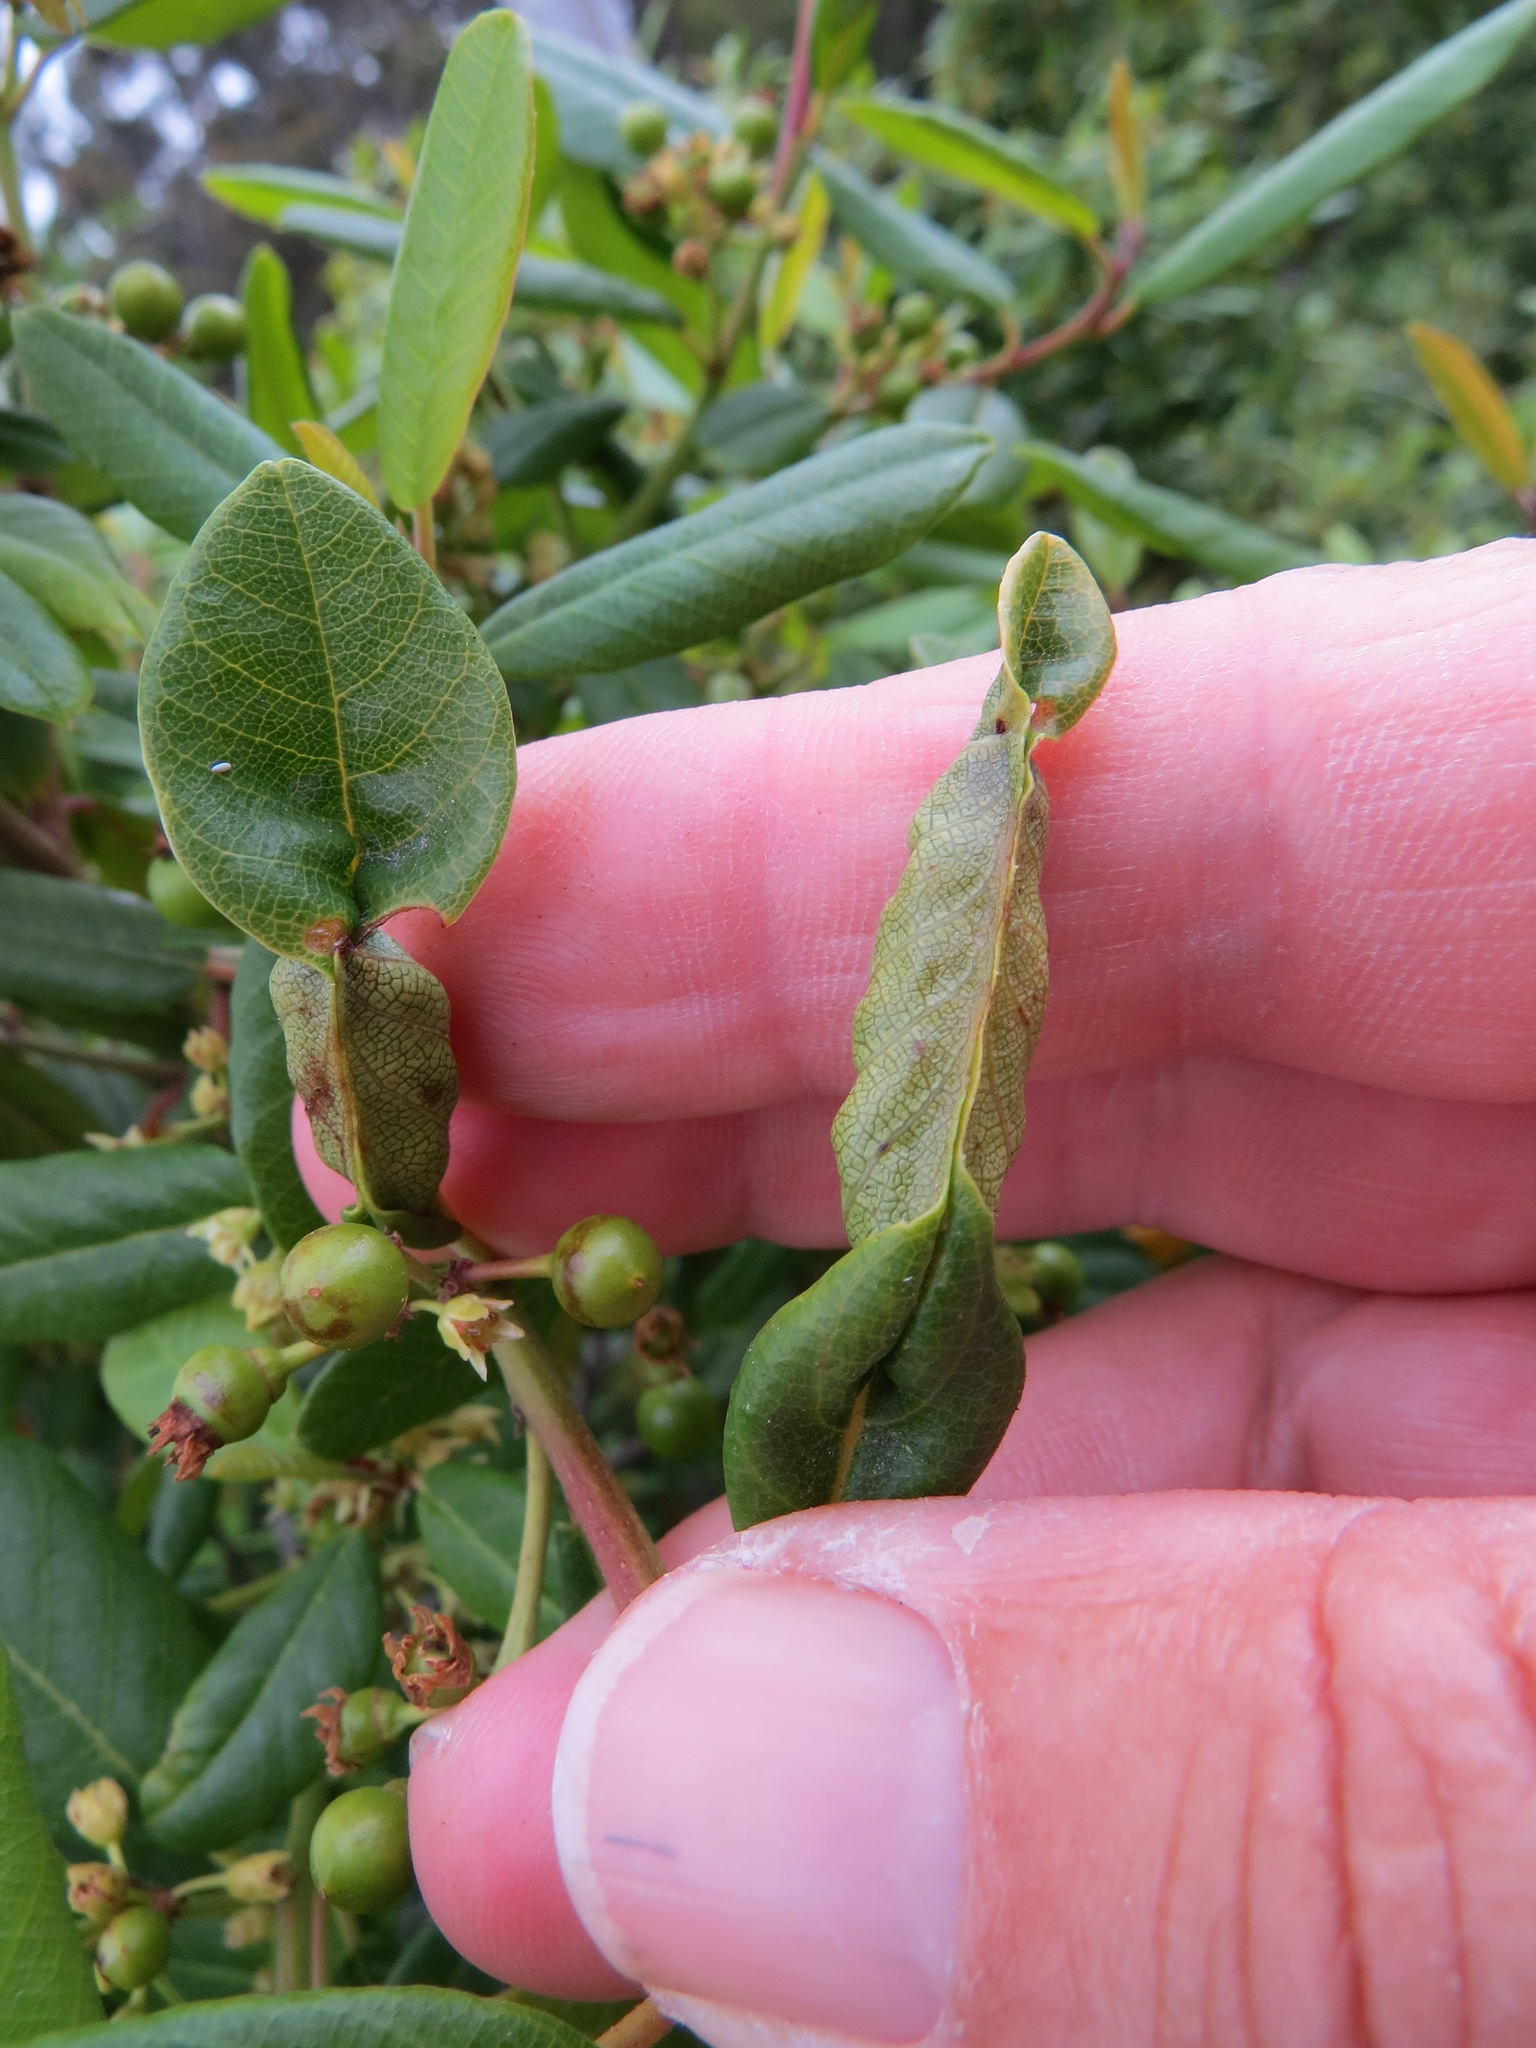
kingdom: Animalia
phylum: Arthropoda
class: Insecta
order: Lepidoptera
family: Cosmopterigidae
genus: Sorhagenia
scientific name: Sorhagenia nimbosus
